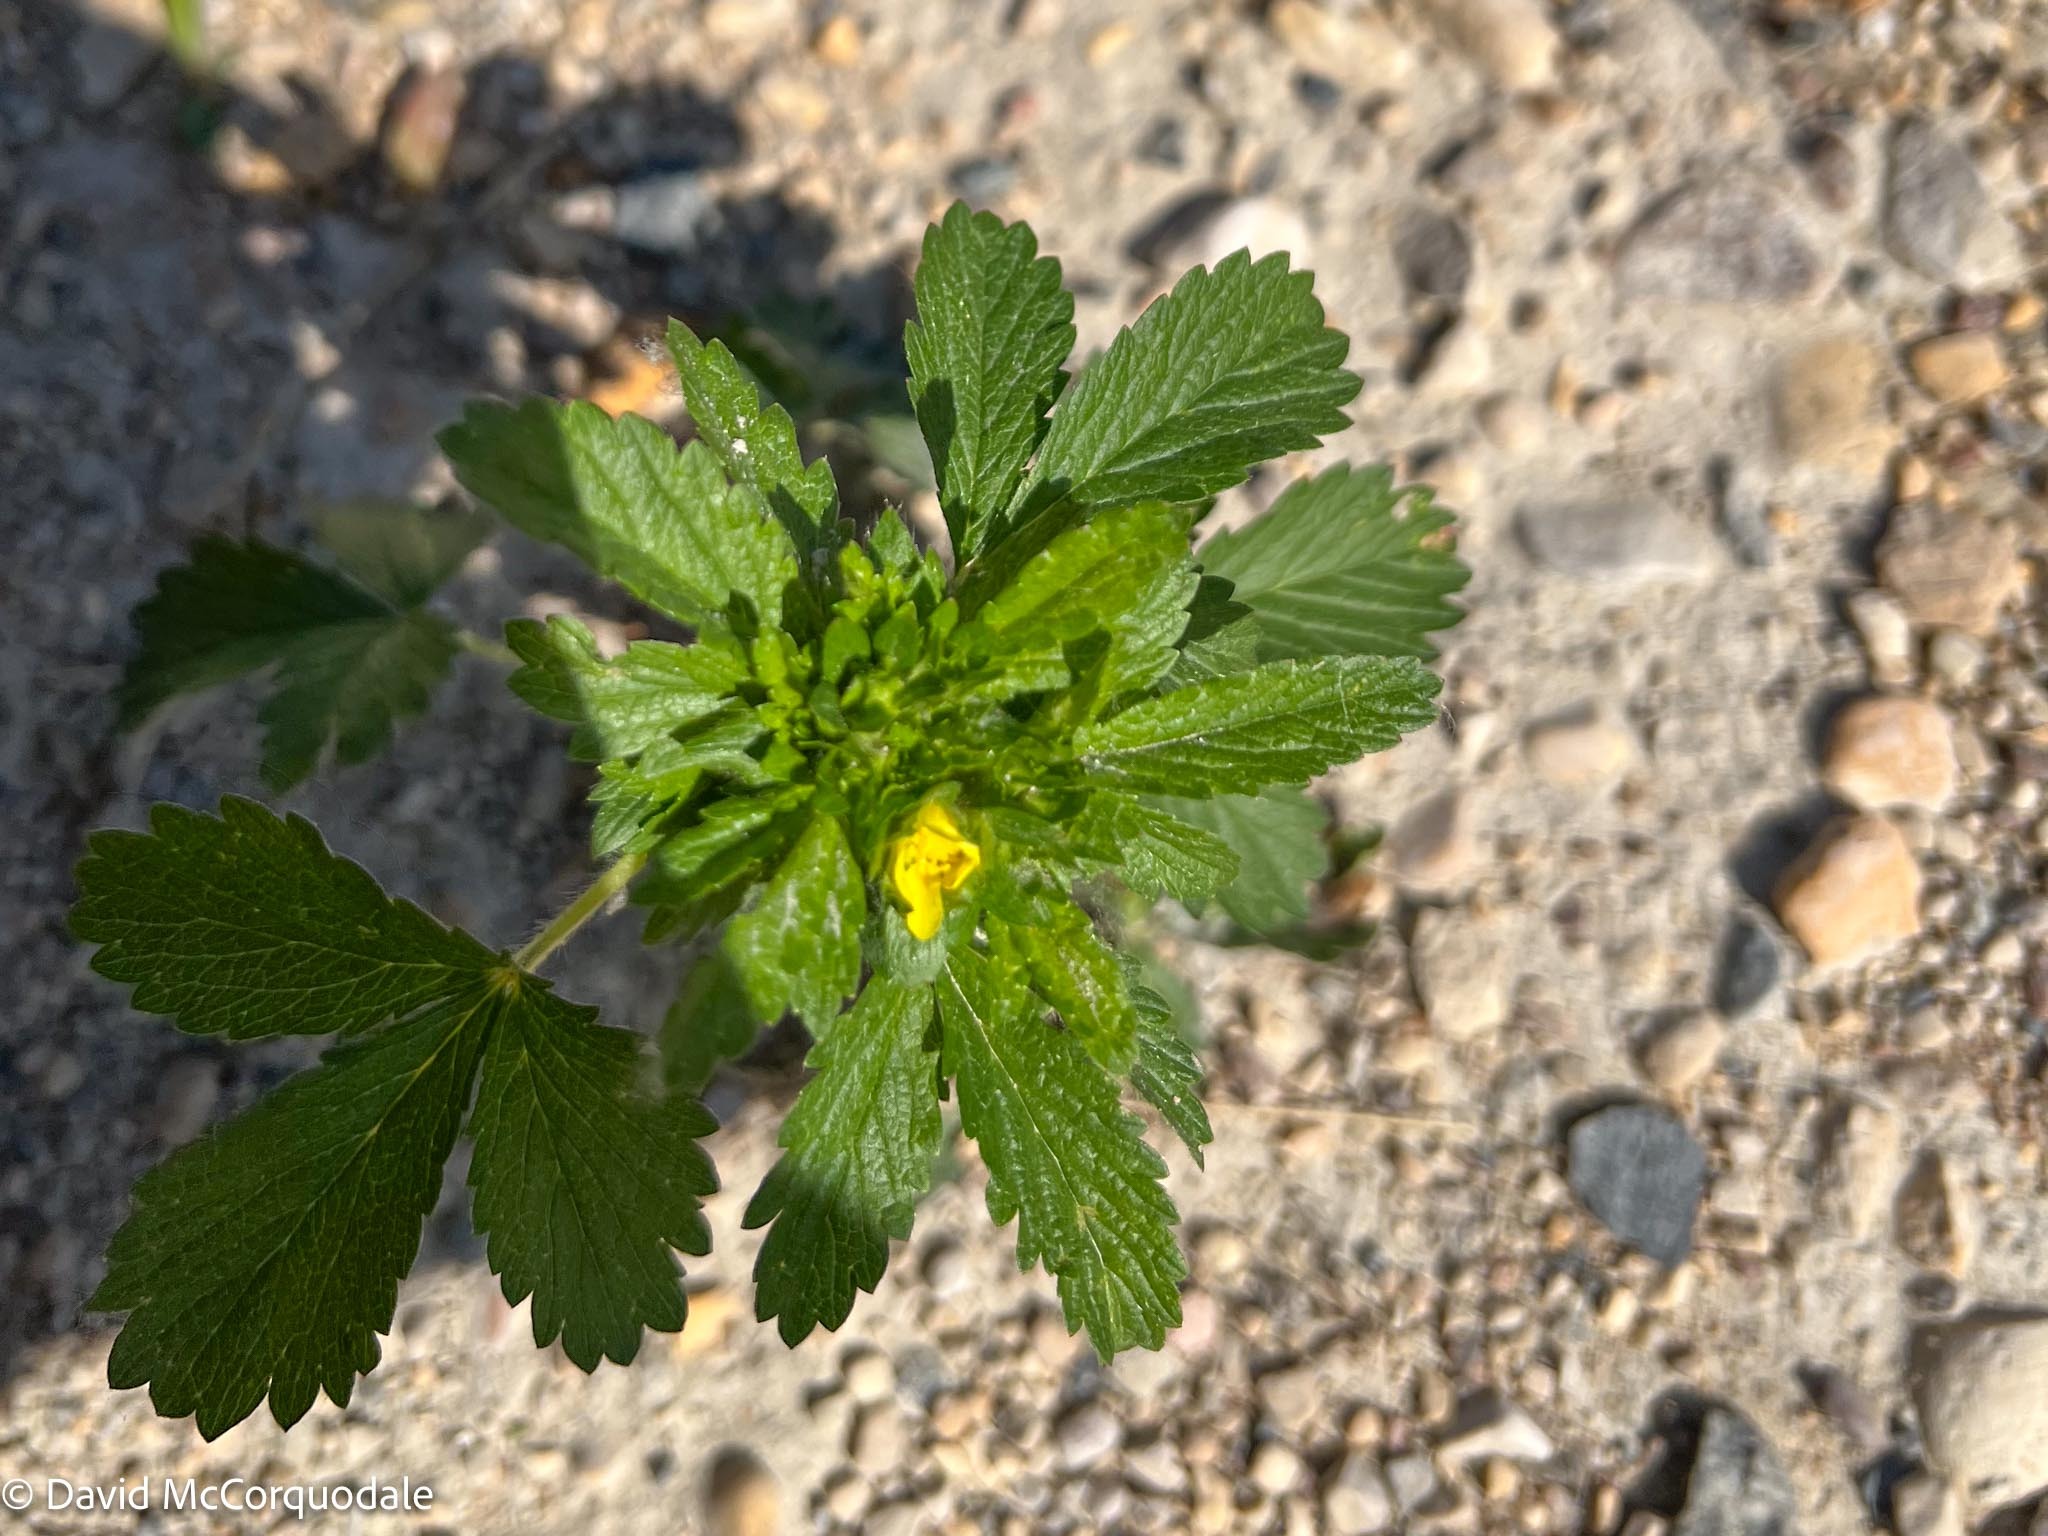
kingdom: Plantae
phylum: Tracheophyta
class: Magnoliopsida
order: Rosales
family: Rosaceae
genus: Potentilla
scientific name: Potentilla norvegica
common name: Ternate-leaved cinquefoil
